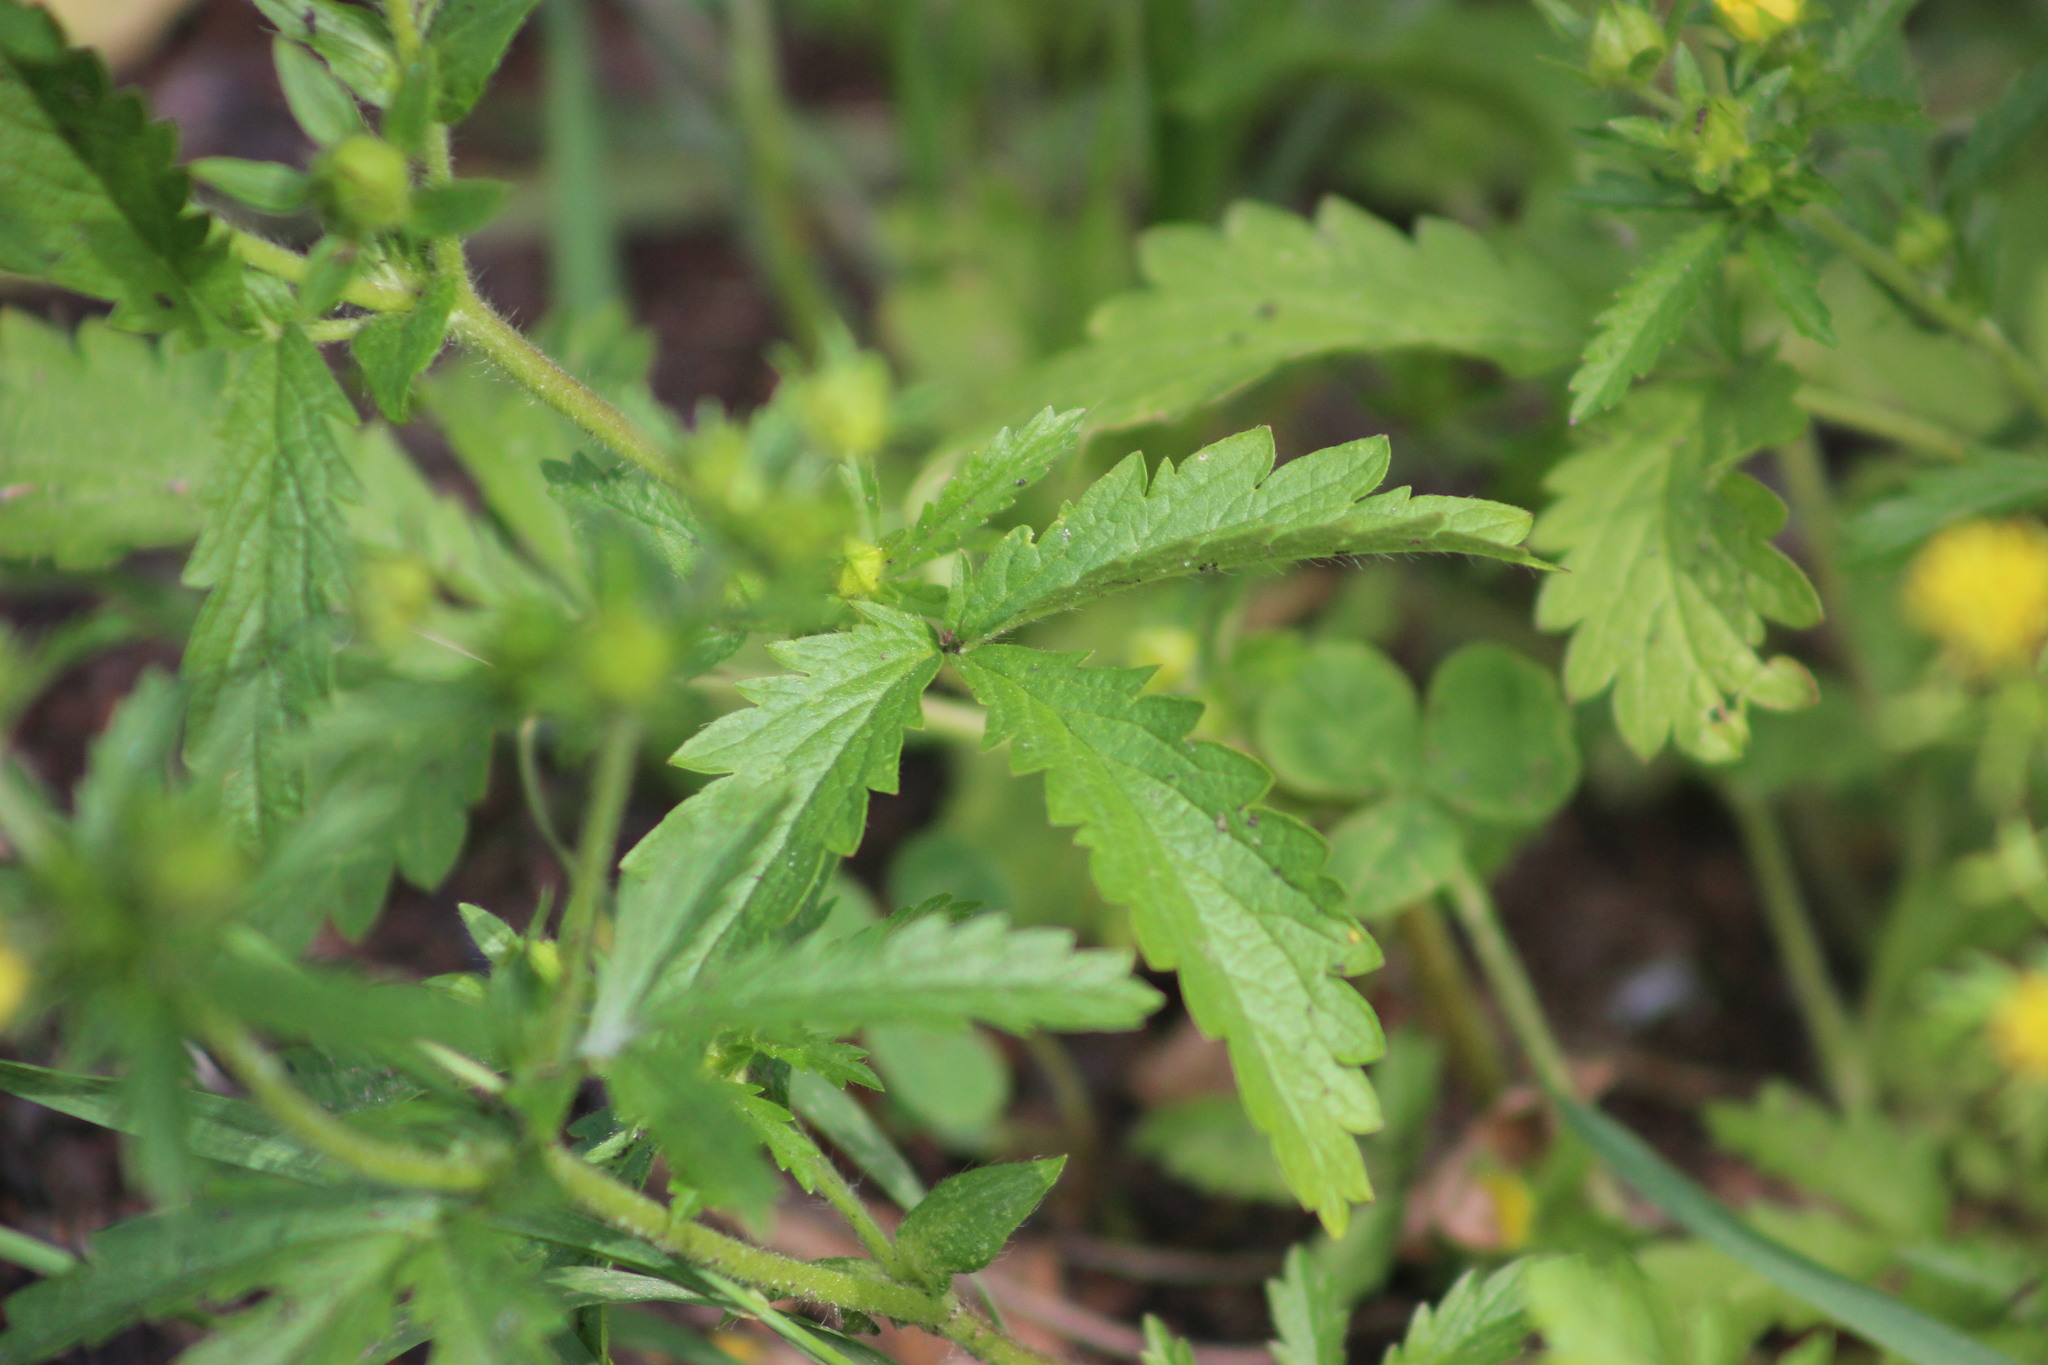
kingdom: Plantae
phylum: Tracheophyta
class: Magnoliopsida
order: Rosales
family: Rosaceae
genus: Potentilla
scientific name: Potentilla norvegica
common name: Ternate-leaved cinquefoil
